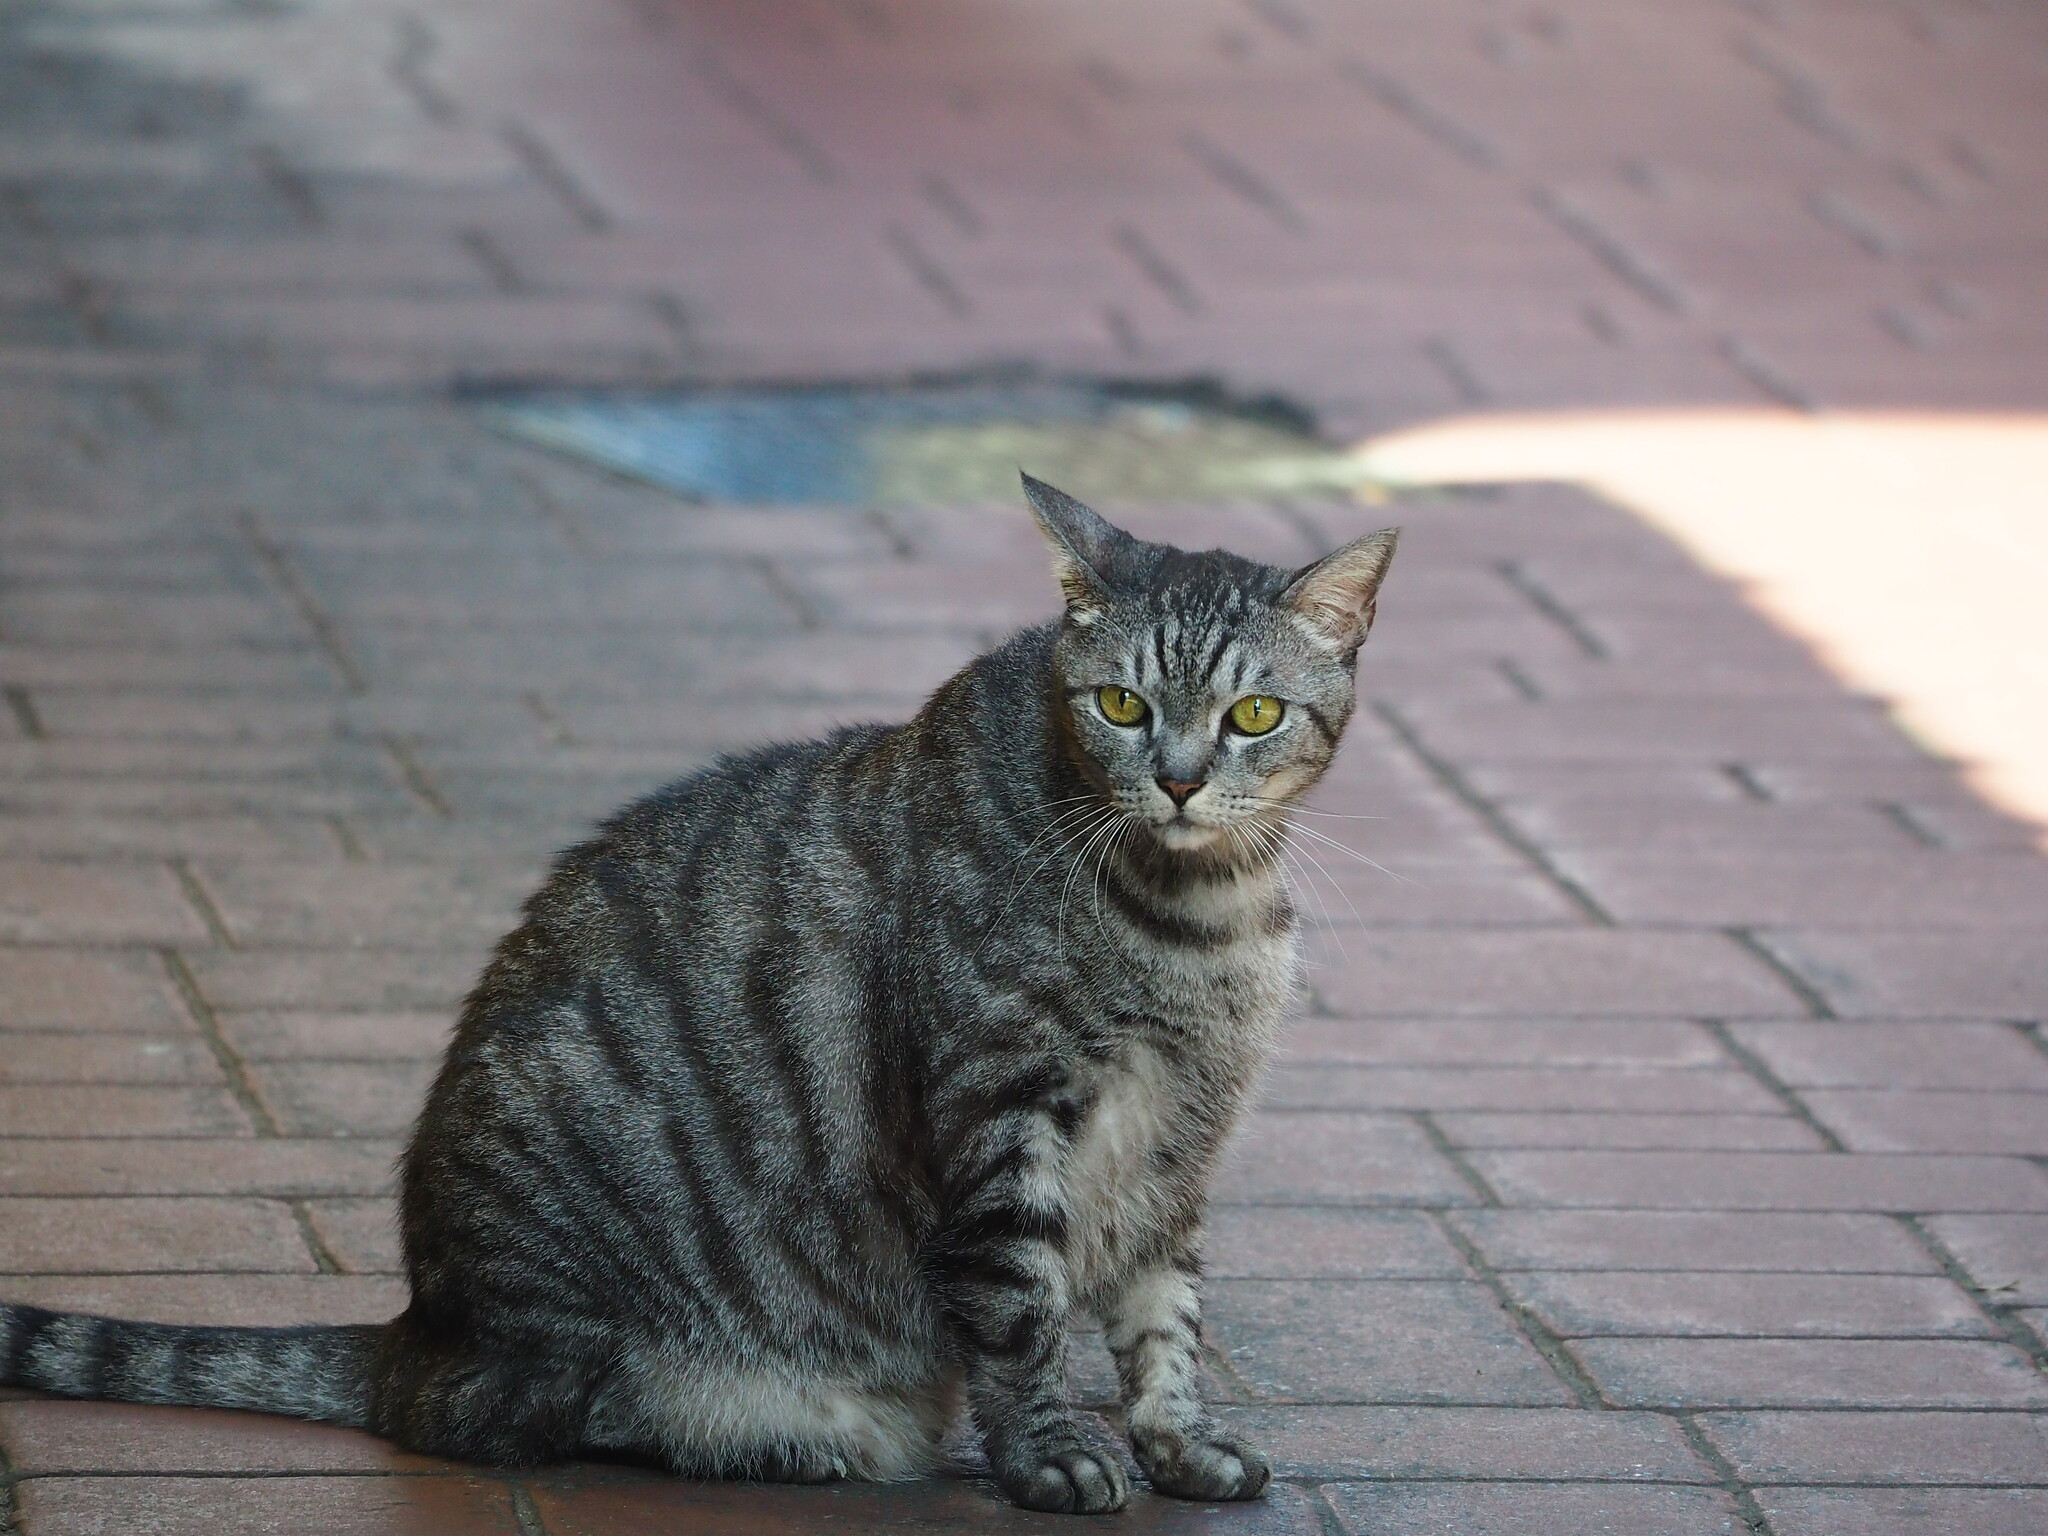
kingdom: Animalia
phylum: Chordata
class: Mammalia
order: Carnivora
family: Felidae
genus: Felis
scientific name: Felis catus
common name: Domestic cat
